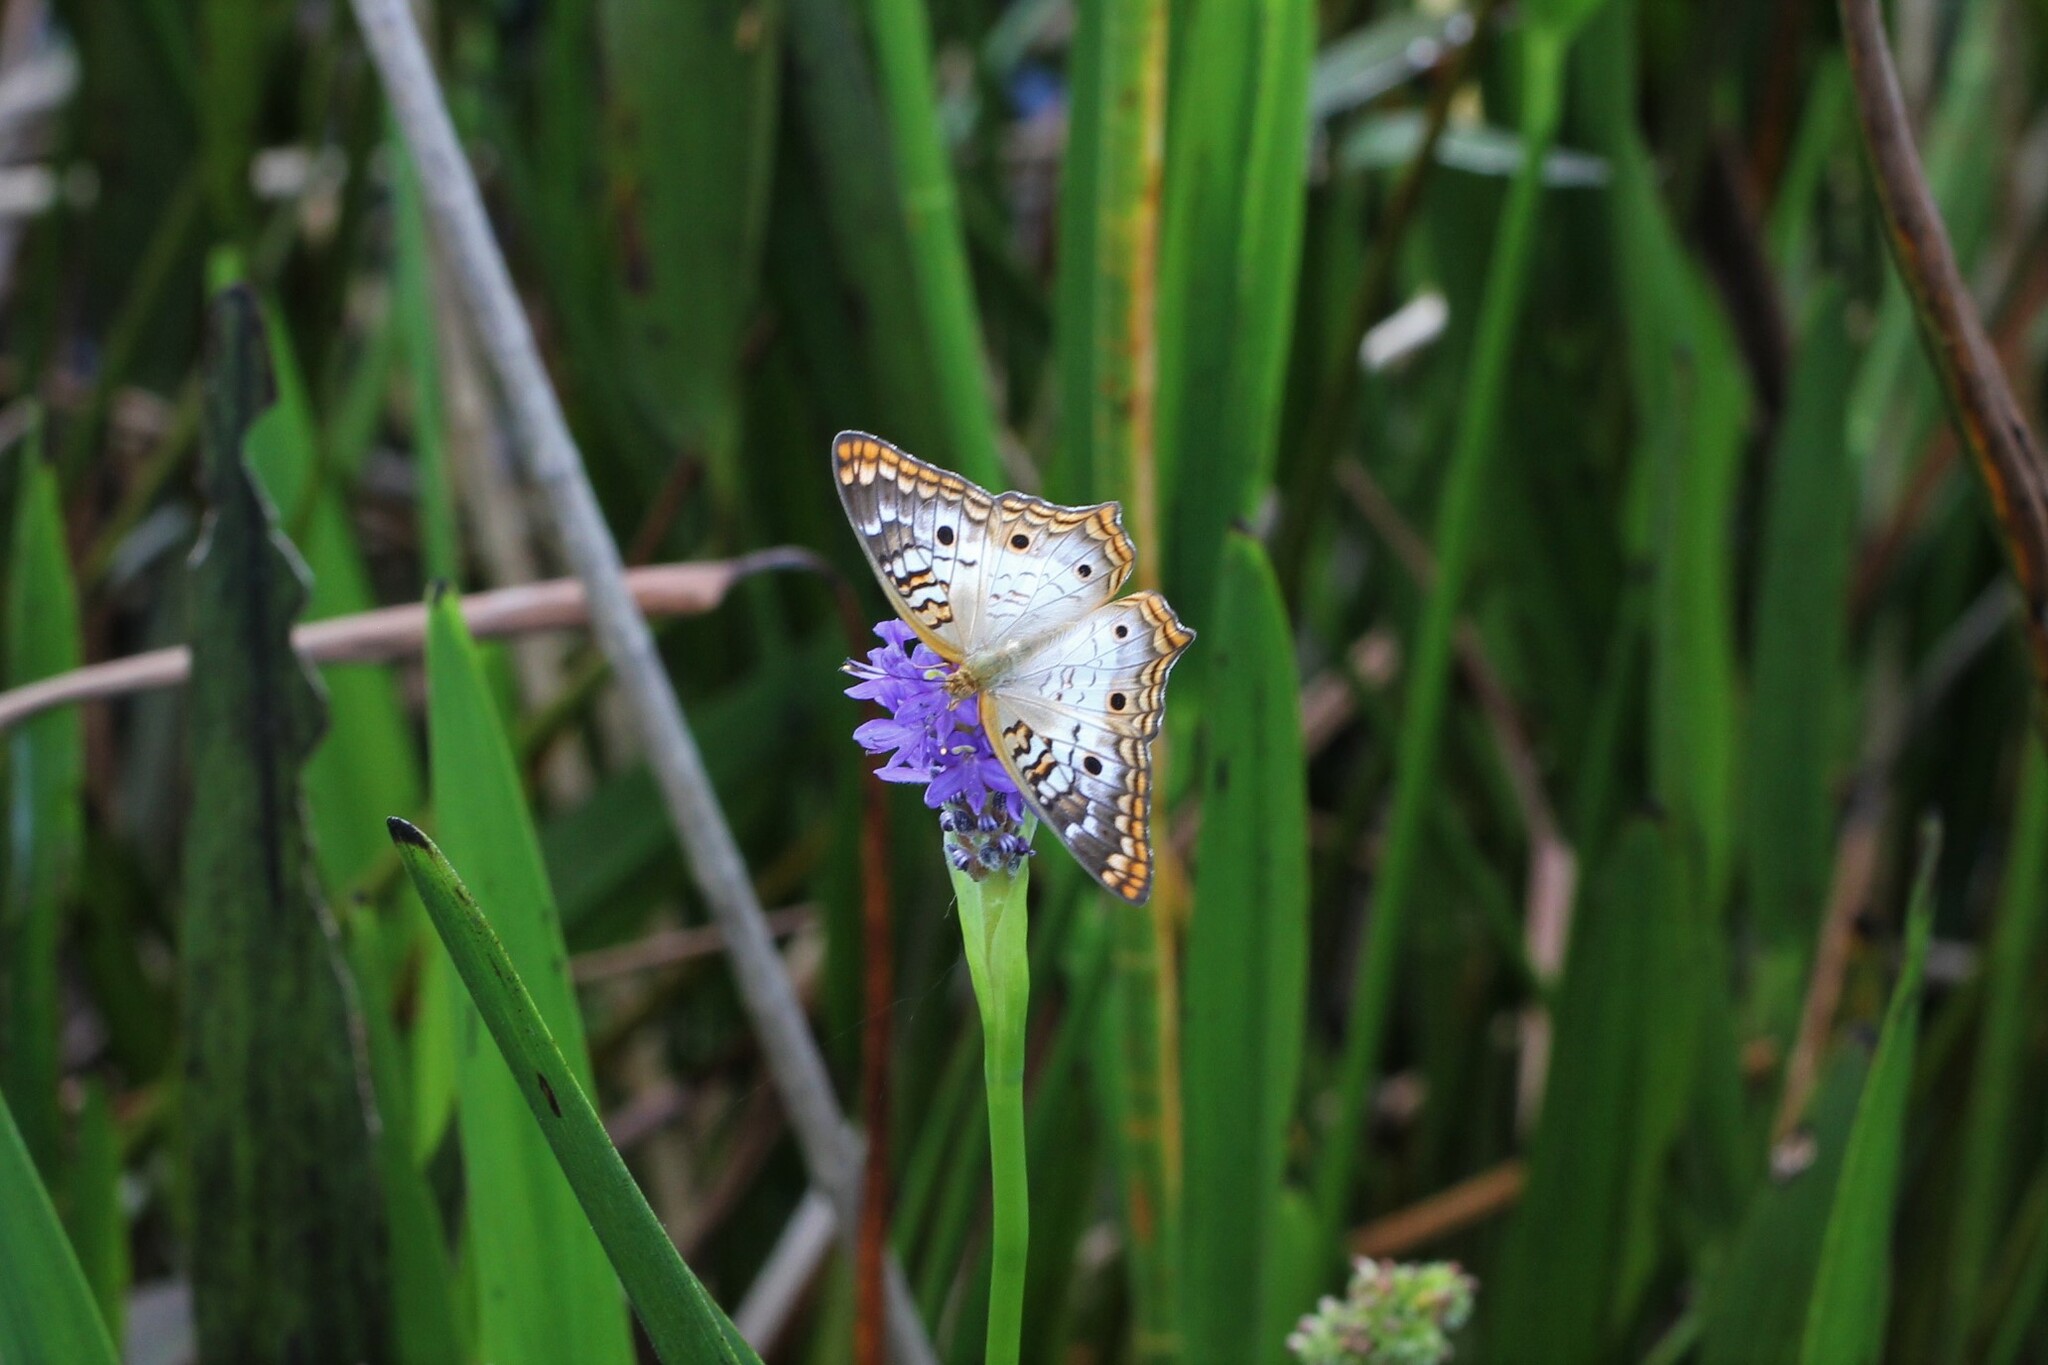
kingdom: Animalia
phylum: Arthropoda
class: Insecta
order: Lepidoptera
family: Nymphalidae
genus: Anartia
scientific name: Anartia jatrophae
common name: White peacock
